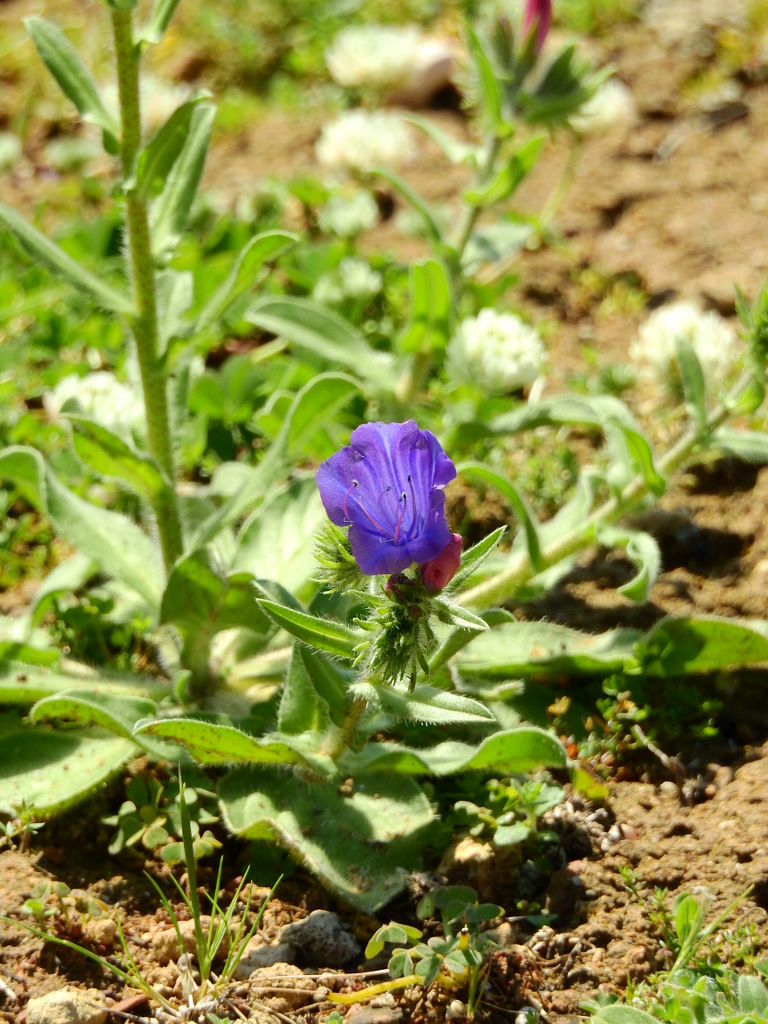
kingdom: Plantae
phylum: Tracheophyta
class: Magnoliopsida
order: Boraginales
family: Boraginaceae
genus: Echium
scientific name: Echium plantagineum
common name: Purple viper's-bugloss
